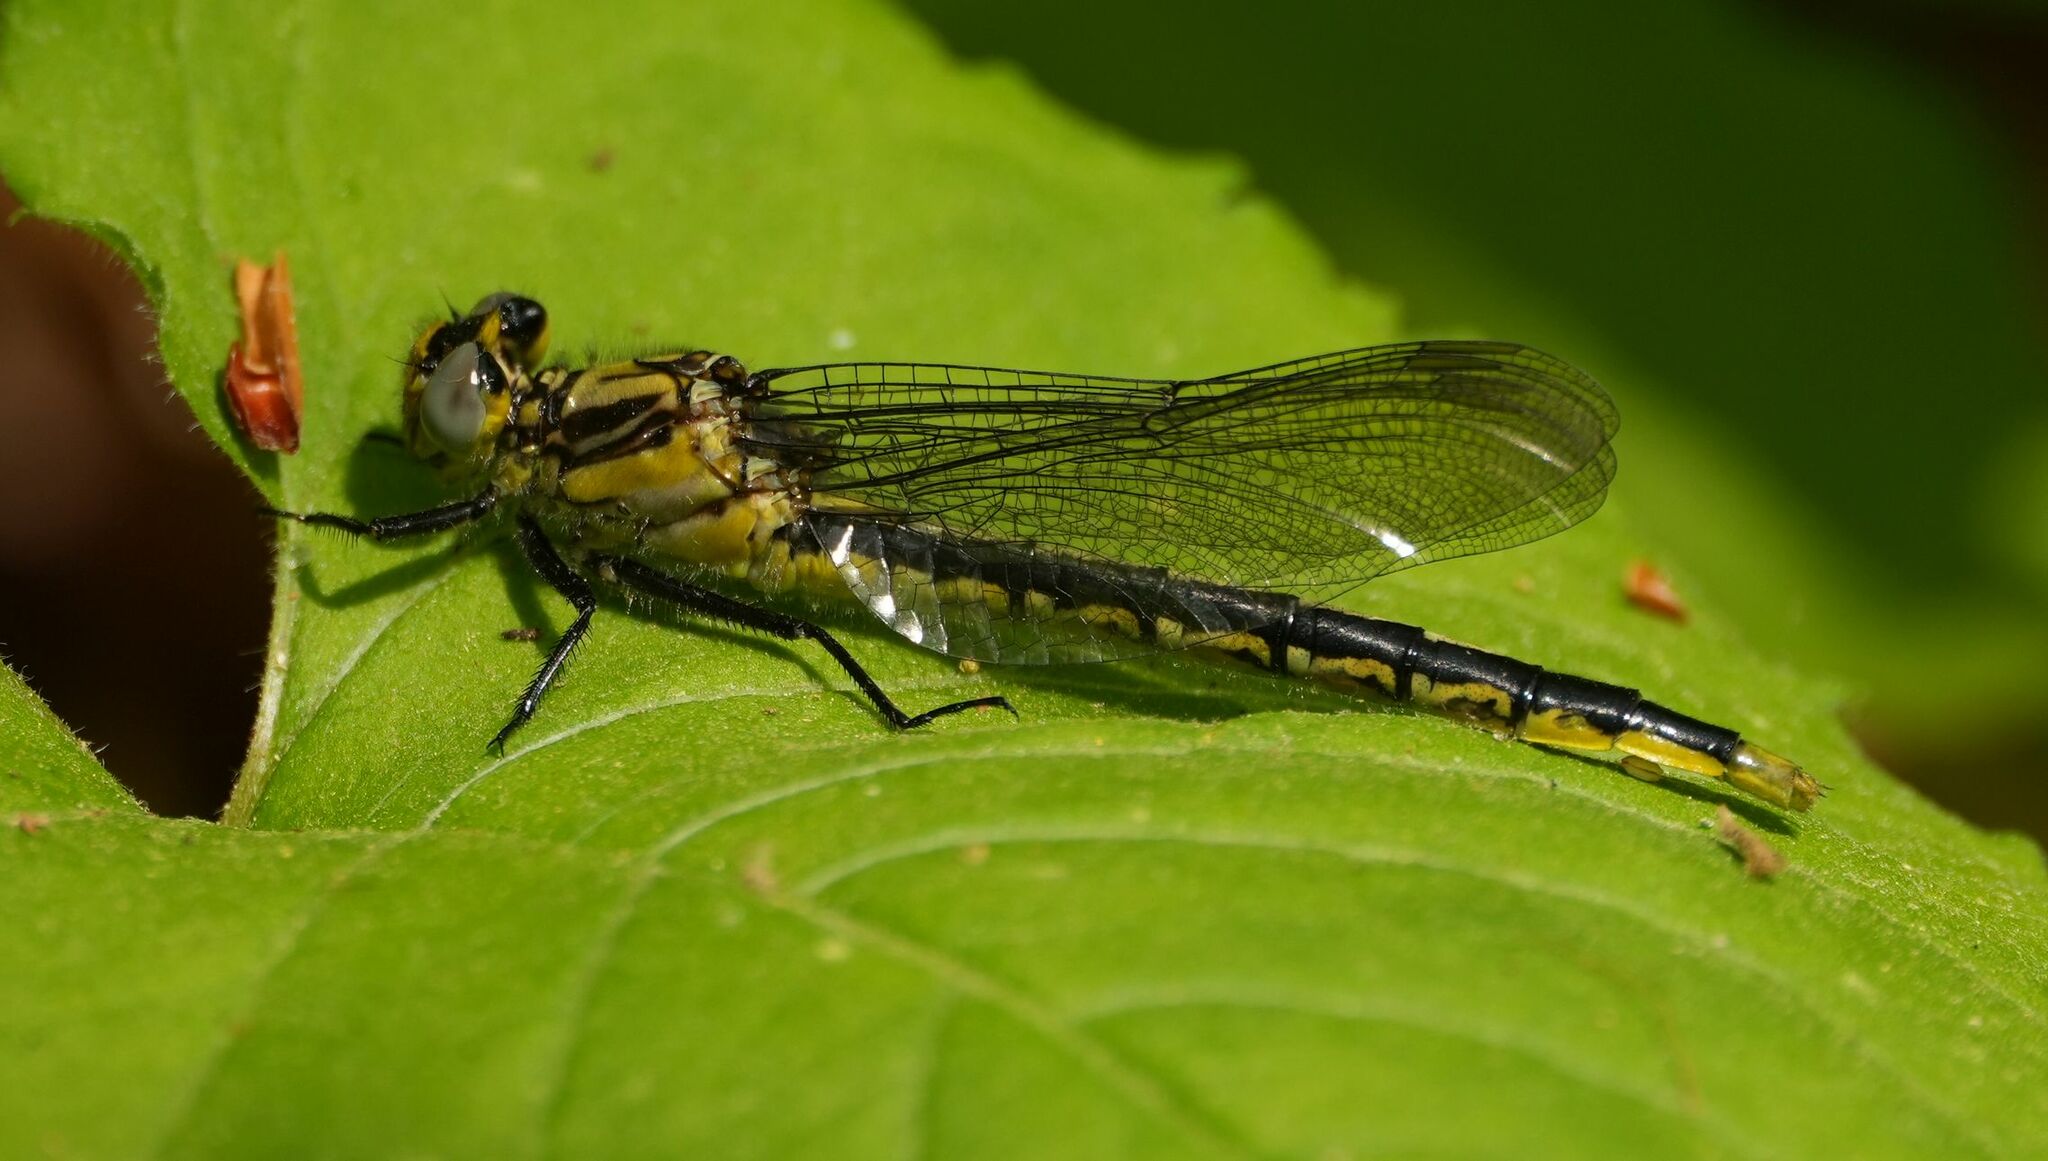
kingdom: Animalia
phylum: Arthropoda
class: Insecta
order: Odonata
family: Gomphidae
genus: Arigomphus
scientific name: Arigomphus furcifer
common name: Lilypad clubtail
